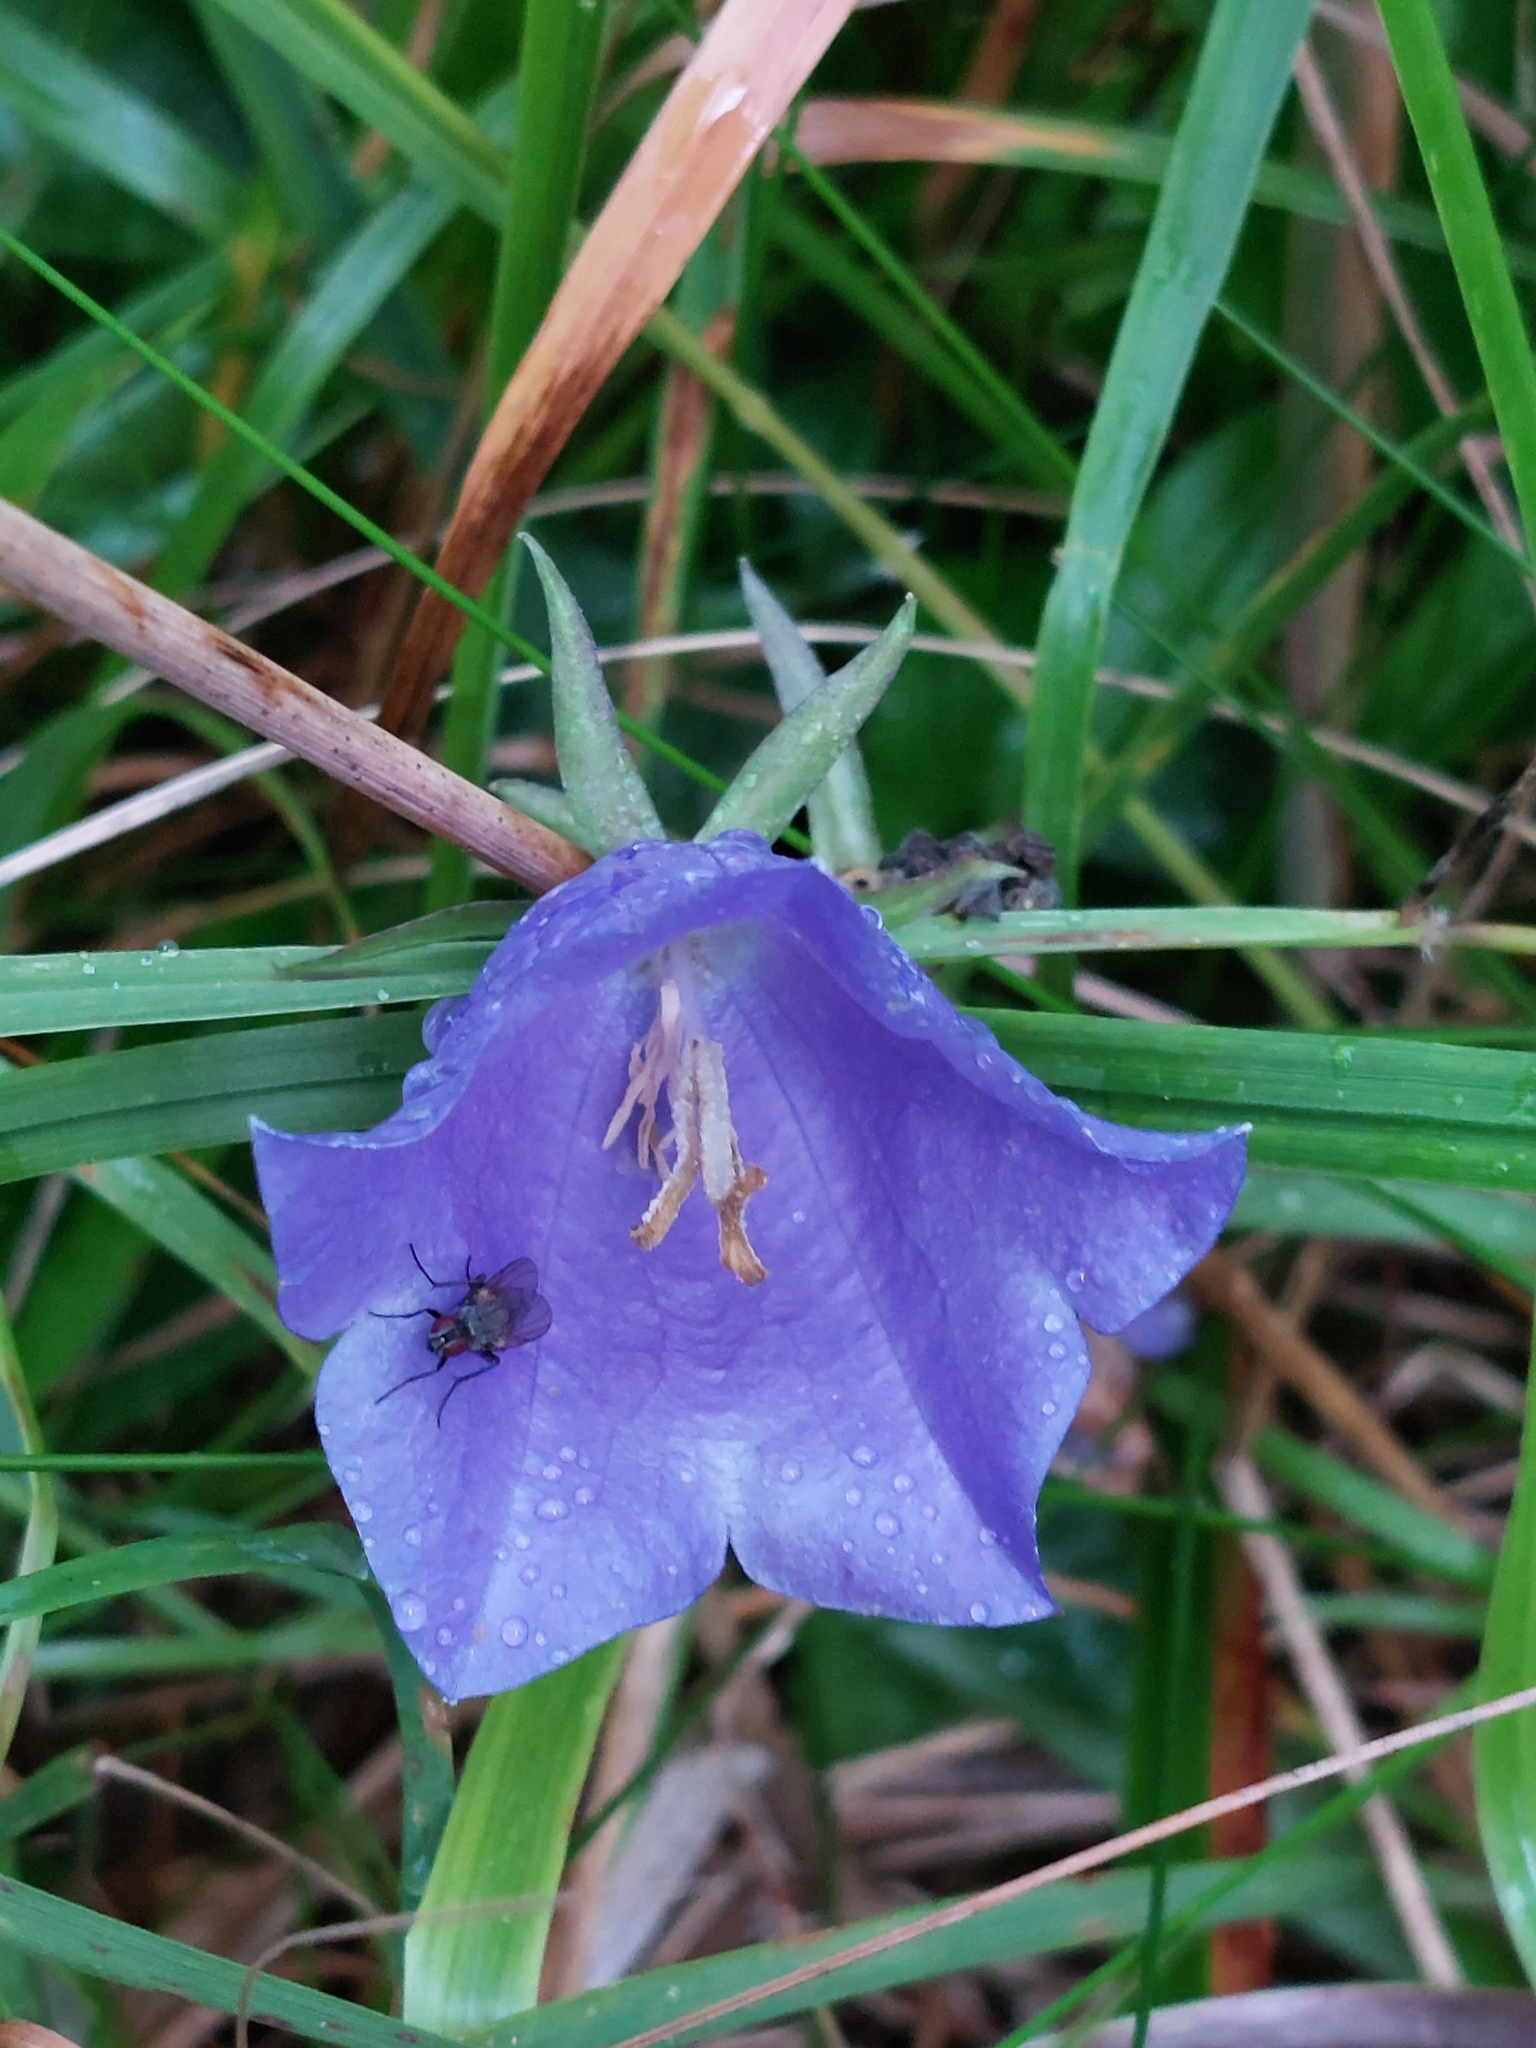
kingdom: Plantae
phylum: Tracheophyta
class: Magnoliopsida
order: Asterales
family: Campanulaceae
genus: Campanula
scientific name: Campanula persicifolia
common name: Peach-leaved bellflower
